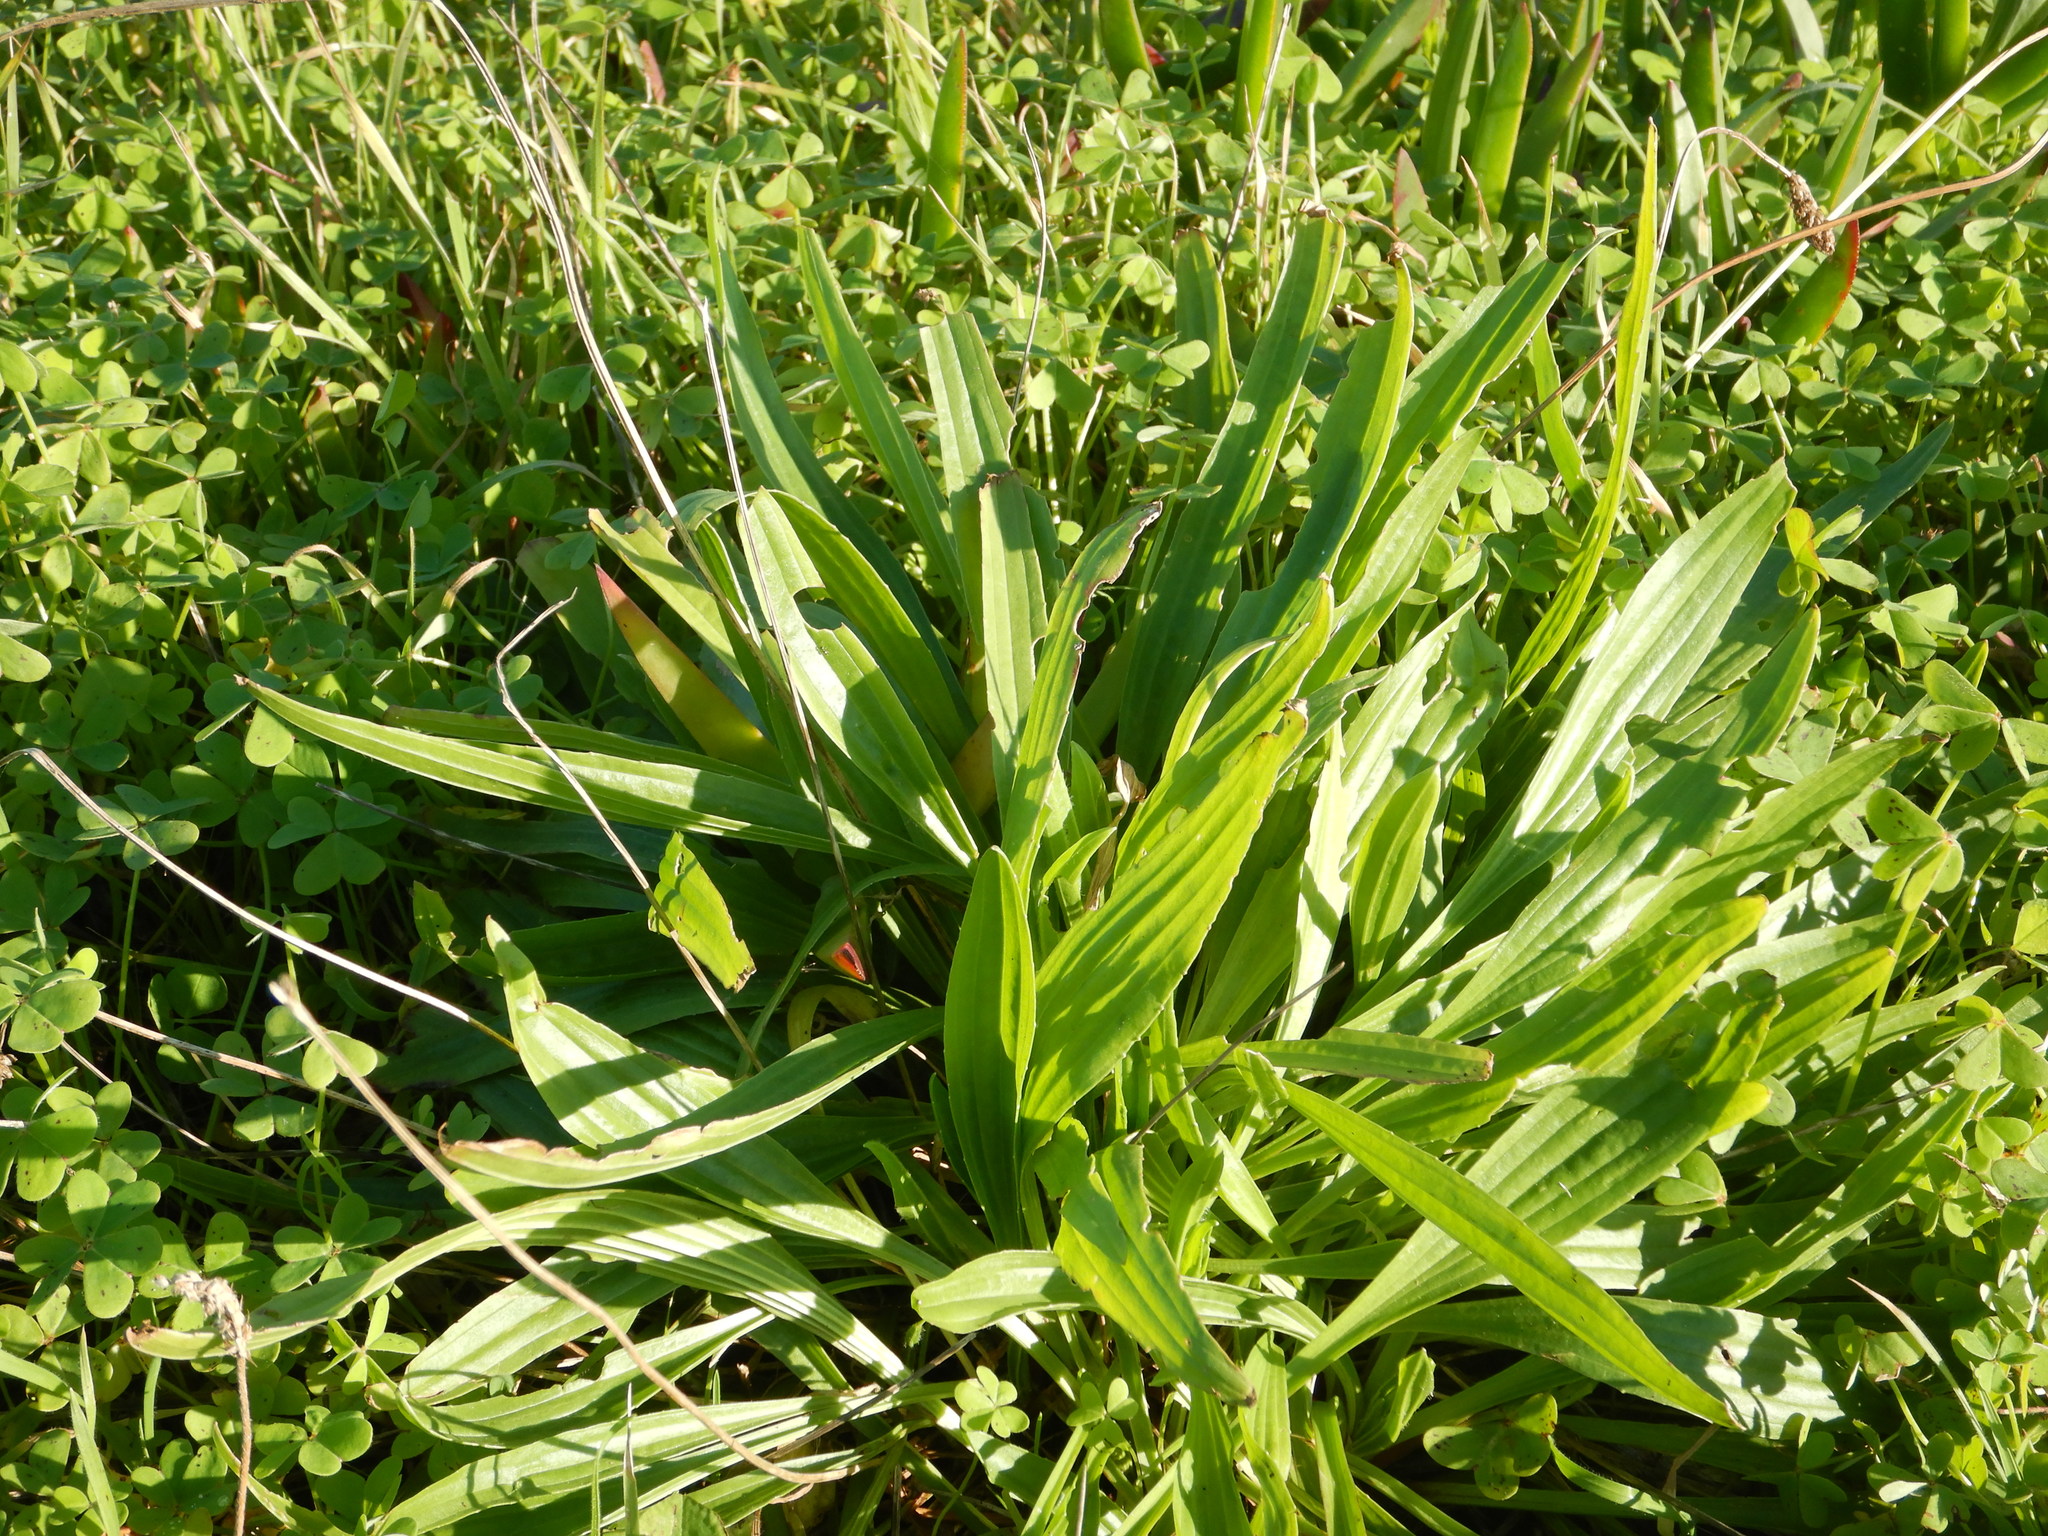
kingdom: Plantae
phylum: Tracheophyta
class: Magnoliopsida
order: Lamiales
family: Plantaginaceae
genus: Plantago
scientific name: Plantago lanceolata
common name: Ribwort plantain
